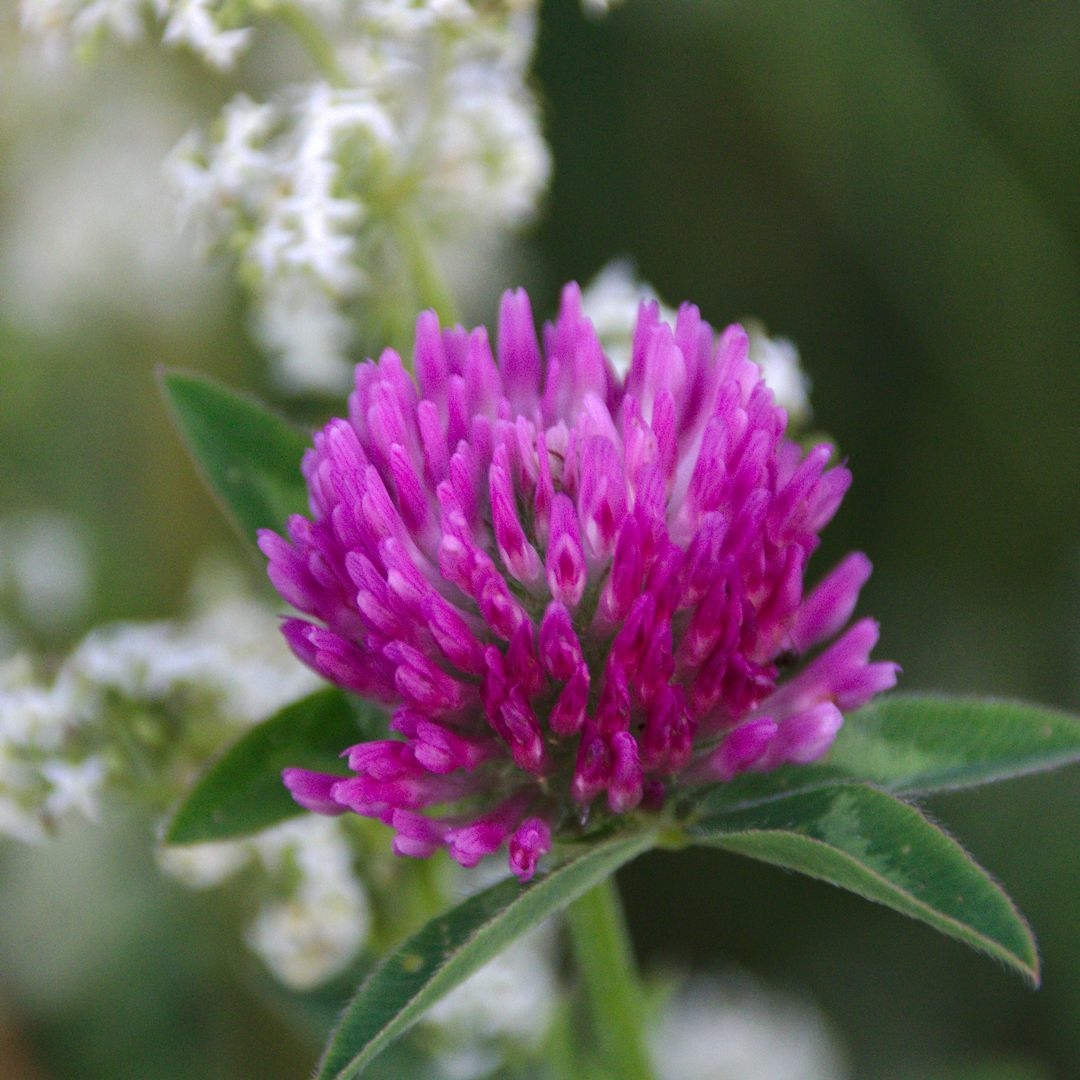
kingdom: Plantae
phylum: Tracheophyta
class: Magnoliopsida
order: Fabales
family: Fabaceae
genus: Trifolium
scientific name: Trifolium pratense
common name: Red clover
